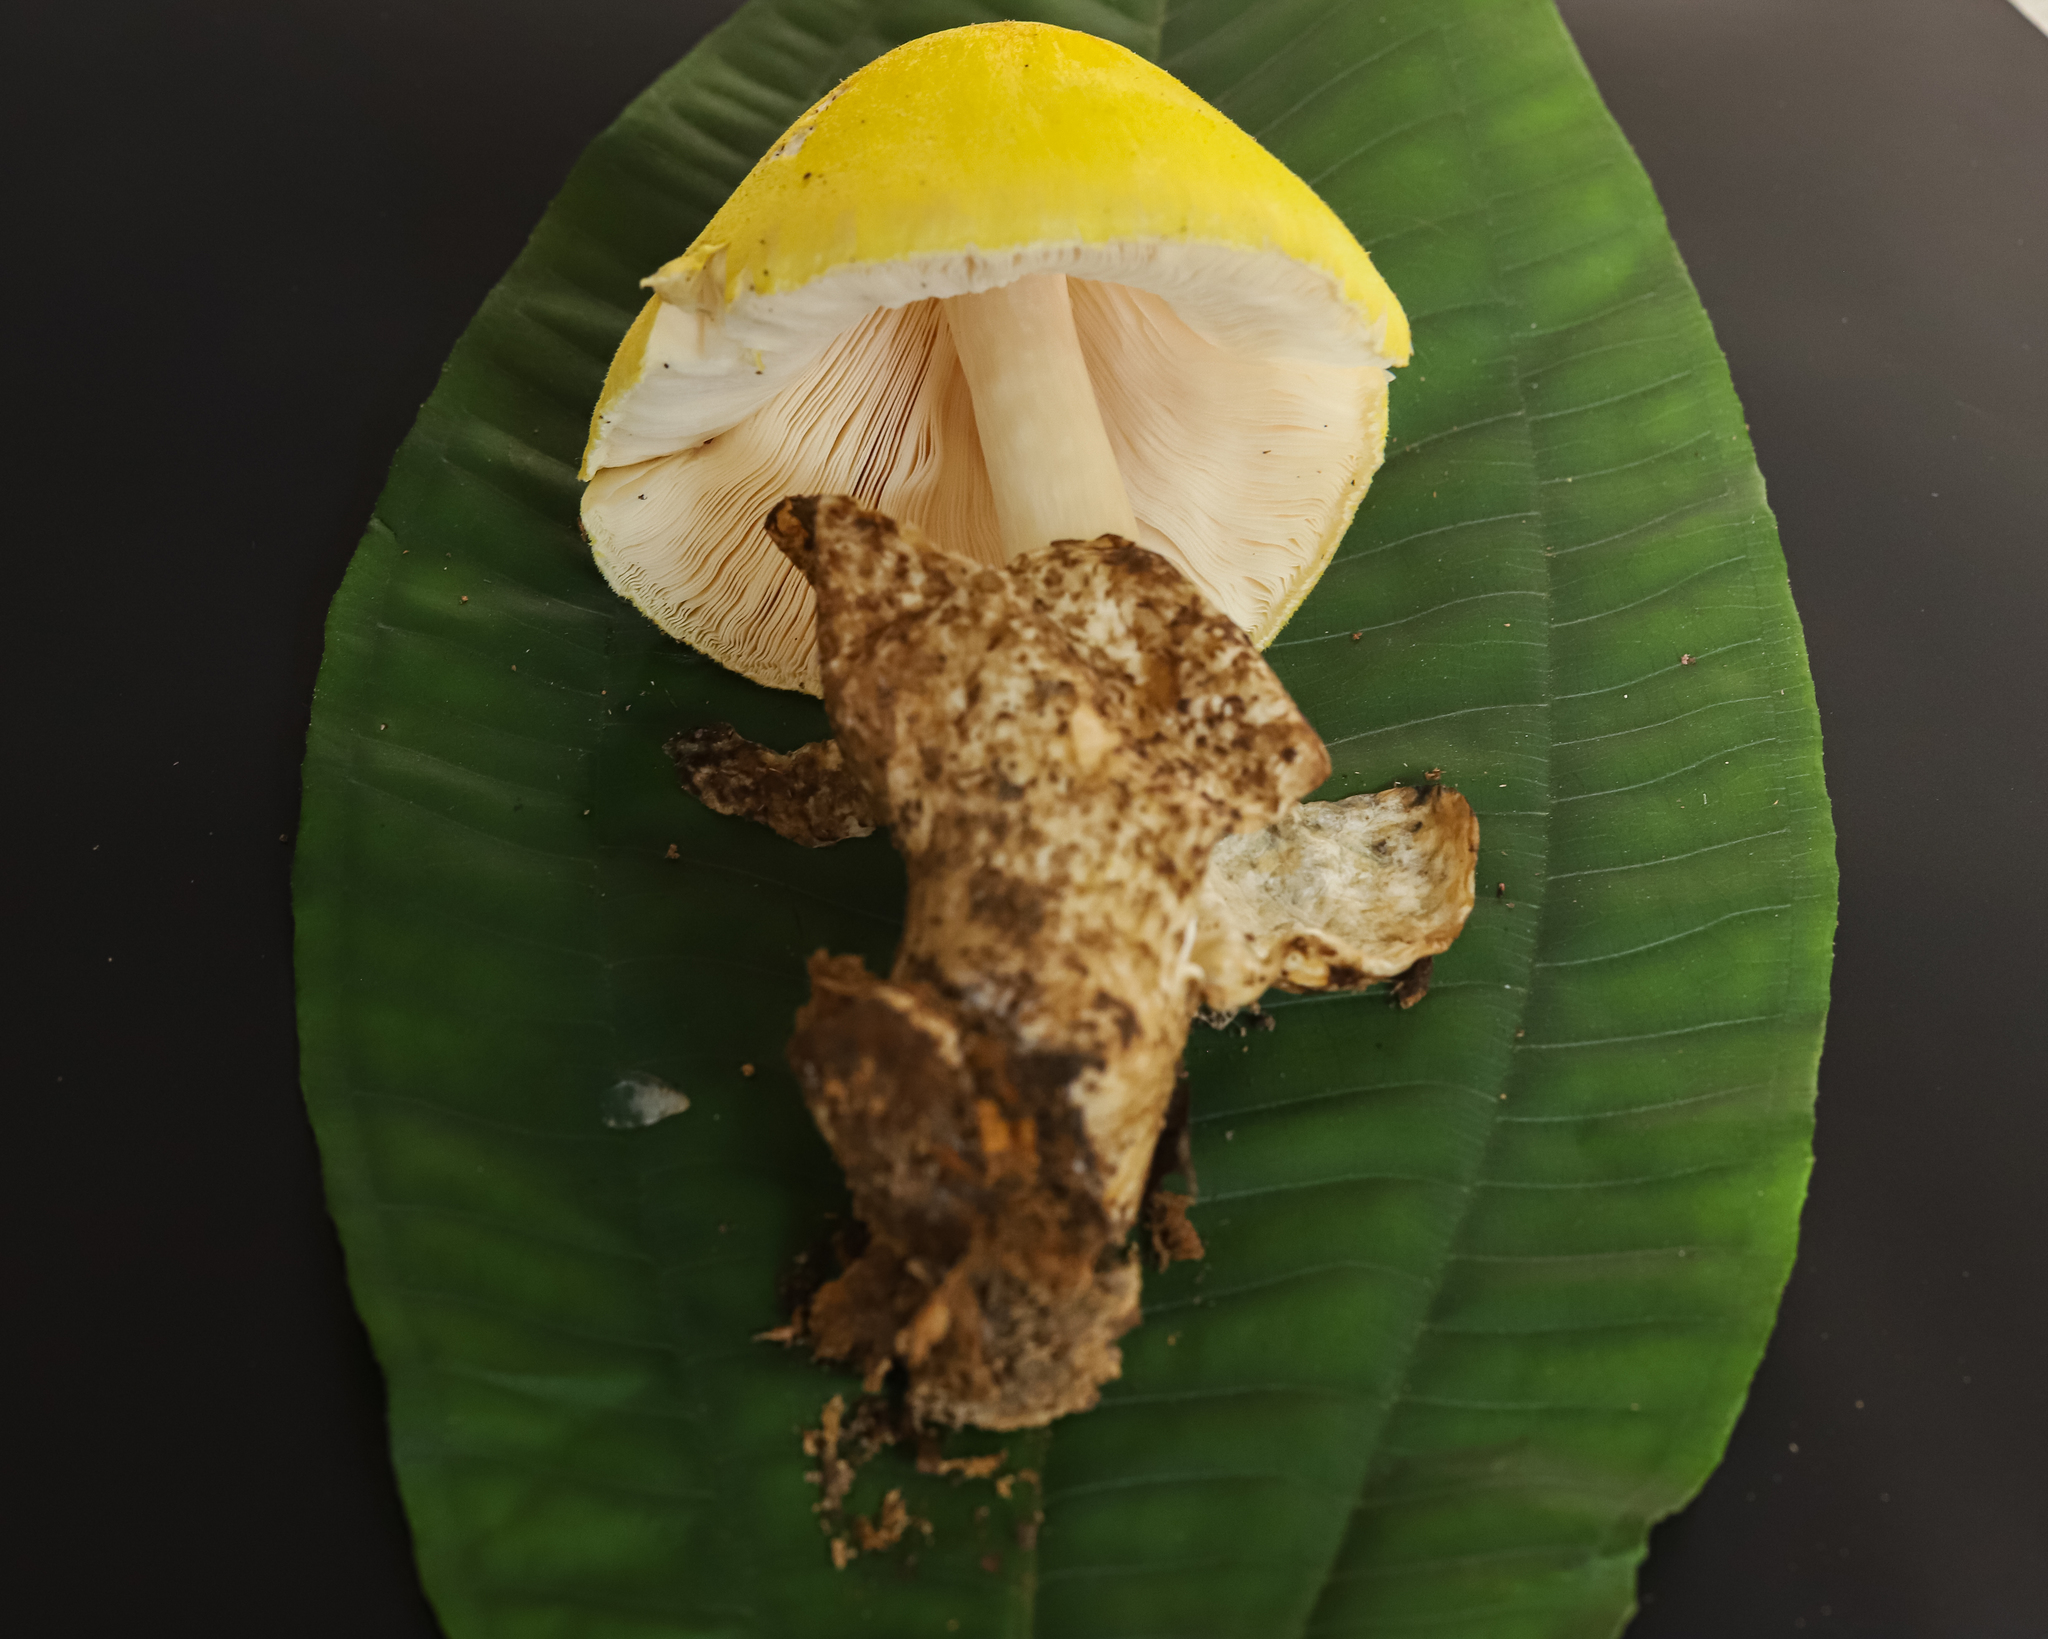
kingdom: Fungi
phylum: Basidiomycota
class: Agaricomycetes
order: Agaricales
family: Pluteaceae
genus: Volvariella
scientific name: Volvariella bombycina
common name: Silky rosegill
